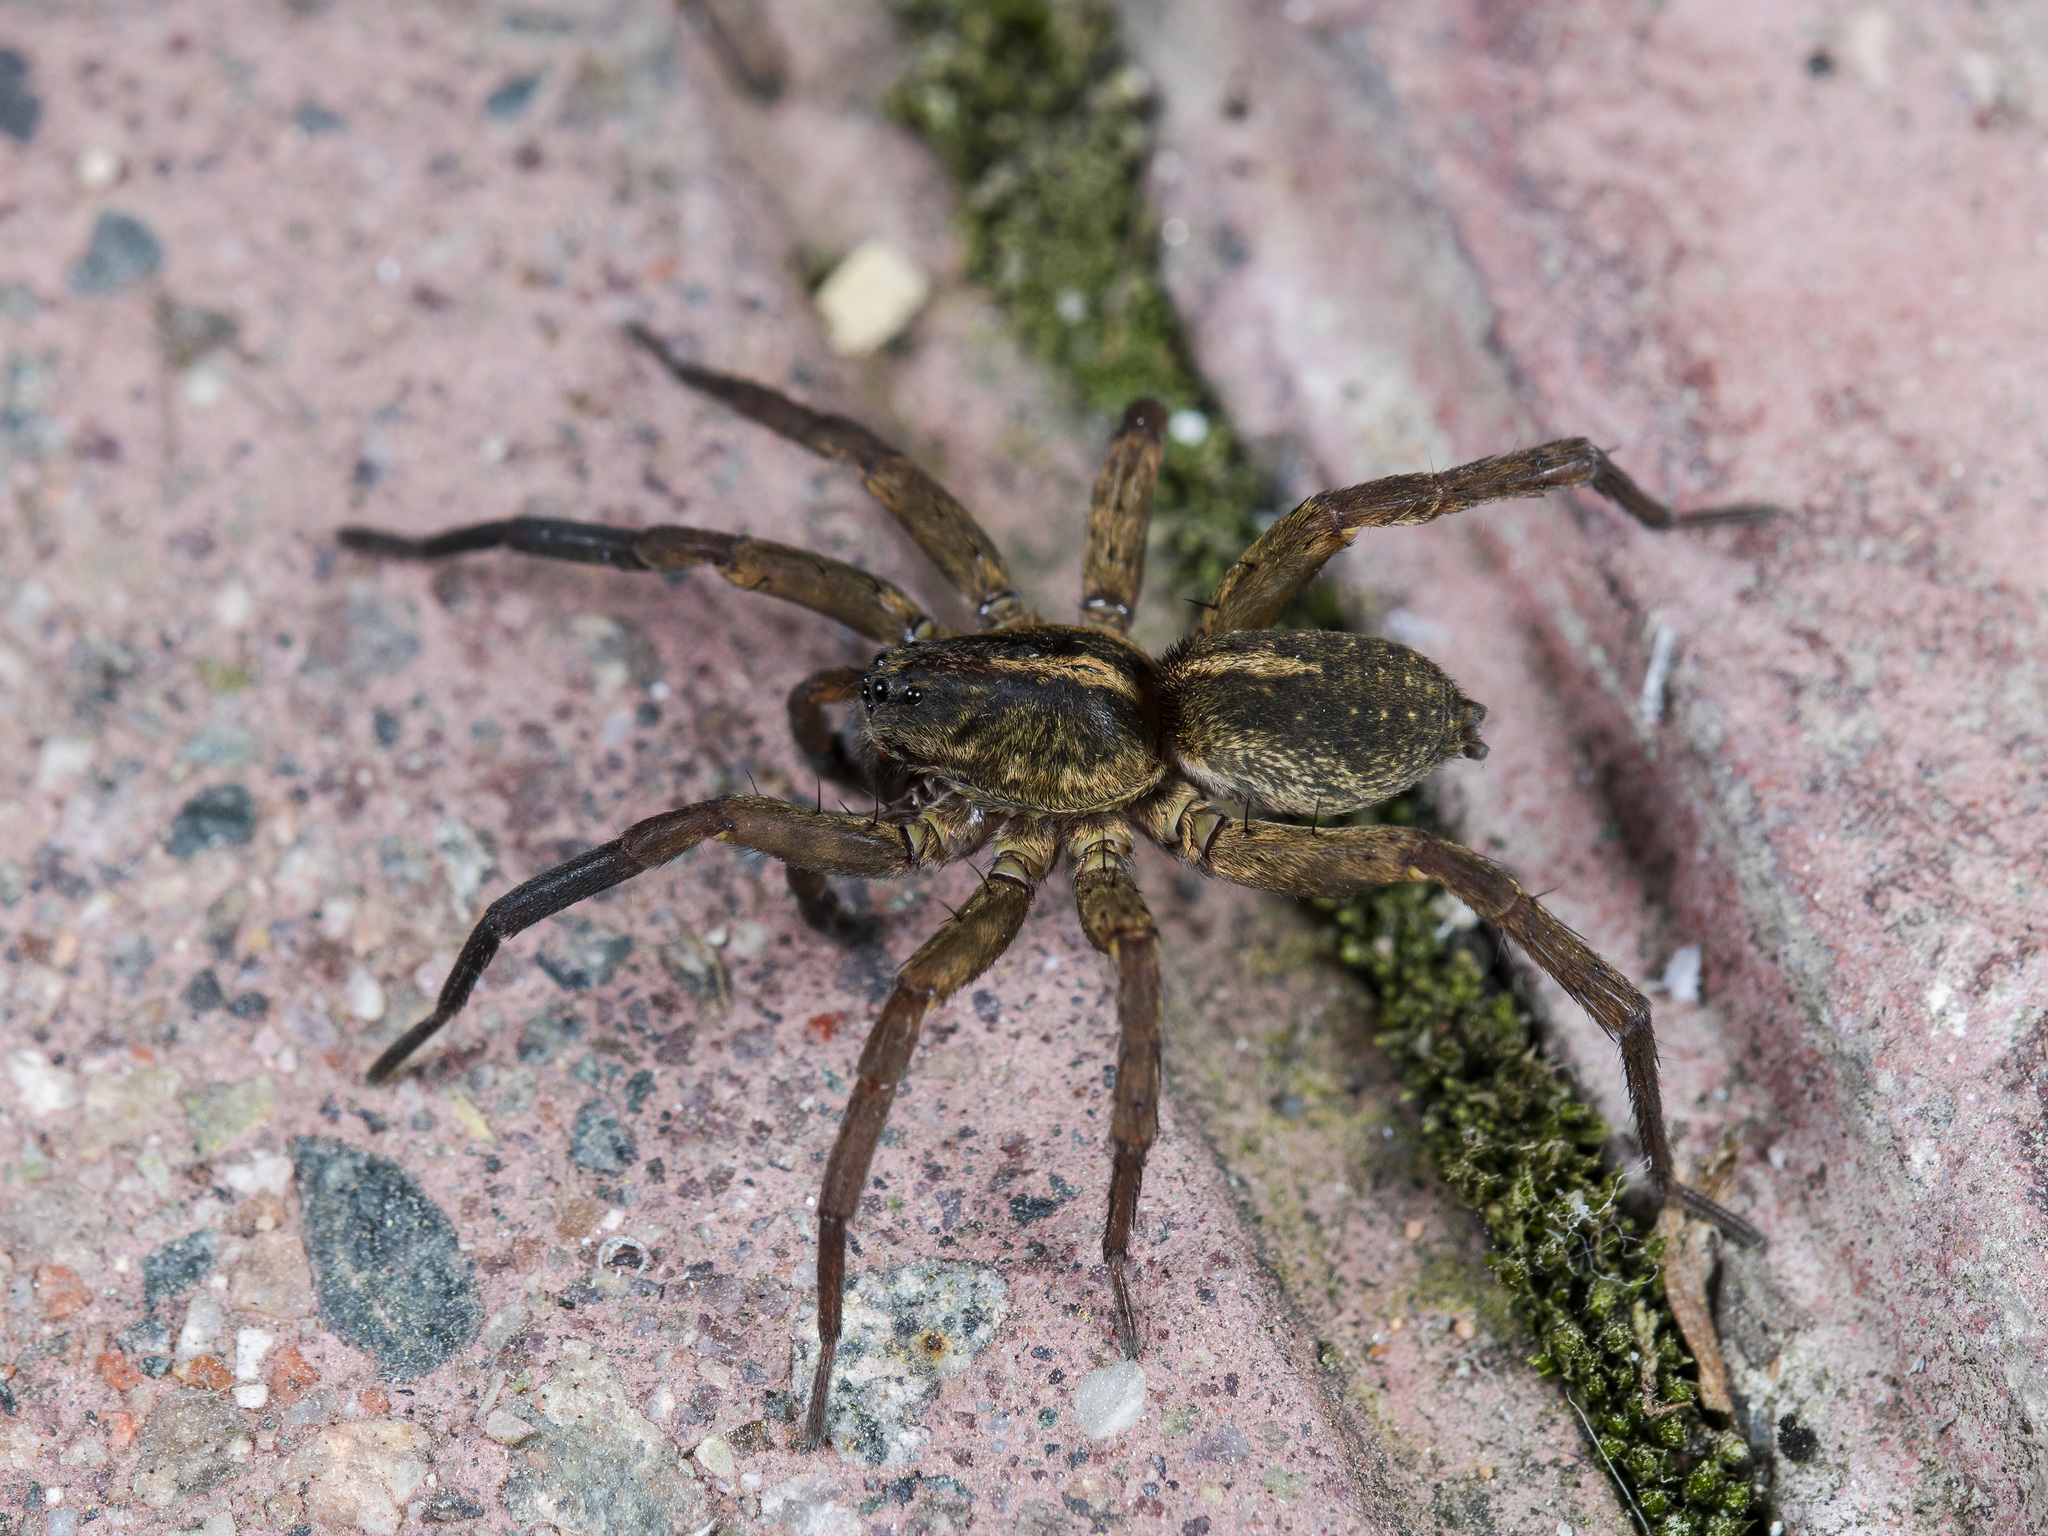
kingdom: Animalia
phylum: Arthropoda
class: Arachnida
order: Araneae
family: Lycosidae
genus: Trochosa
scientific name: Trochosa ruricola
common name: Spider
